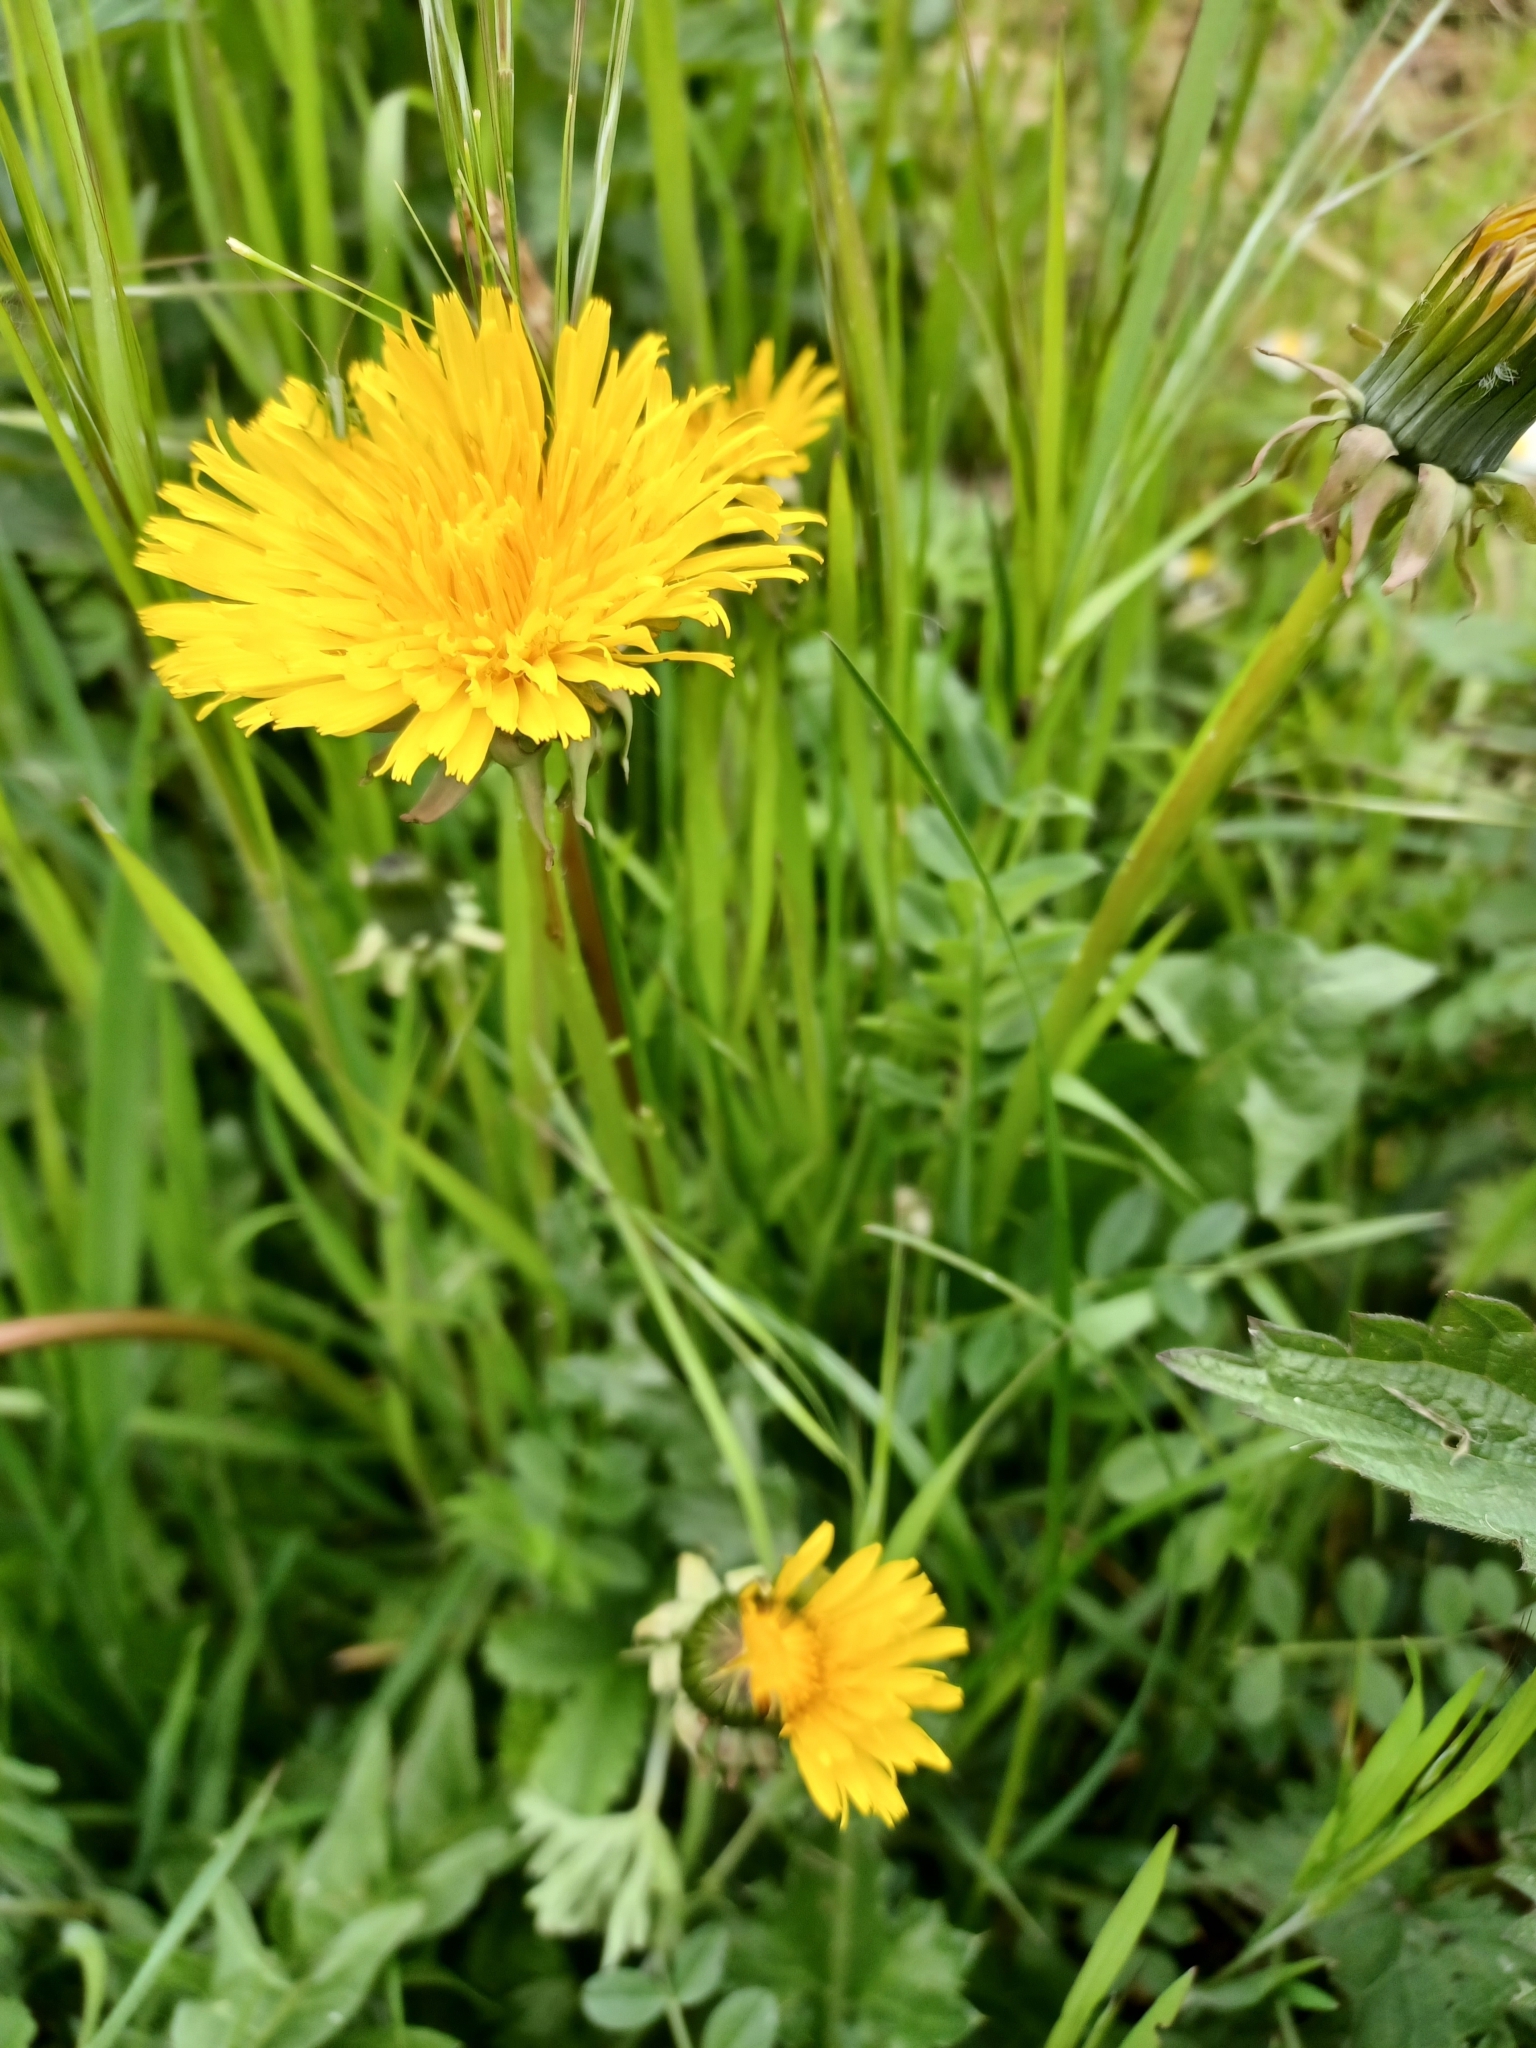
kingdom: Plantae
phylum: Tracheophyta
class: Magnoliopsida
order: Asterales
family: Asteraceae
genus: Taraxacum
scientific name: Taraxacum officinale
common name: Common dandelion
